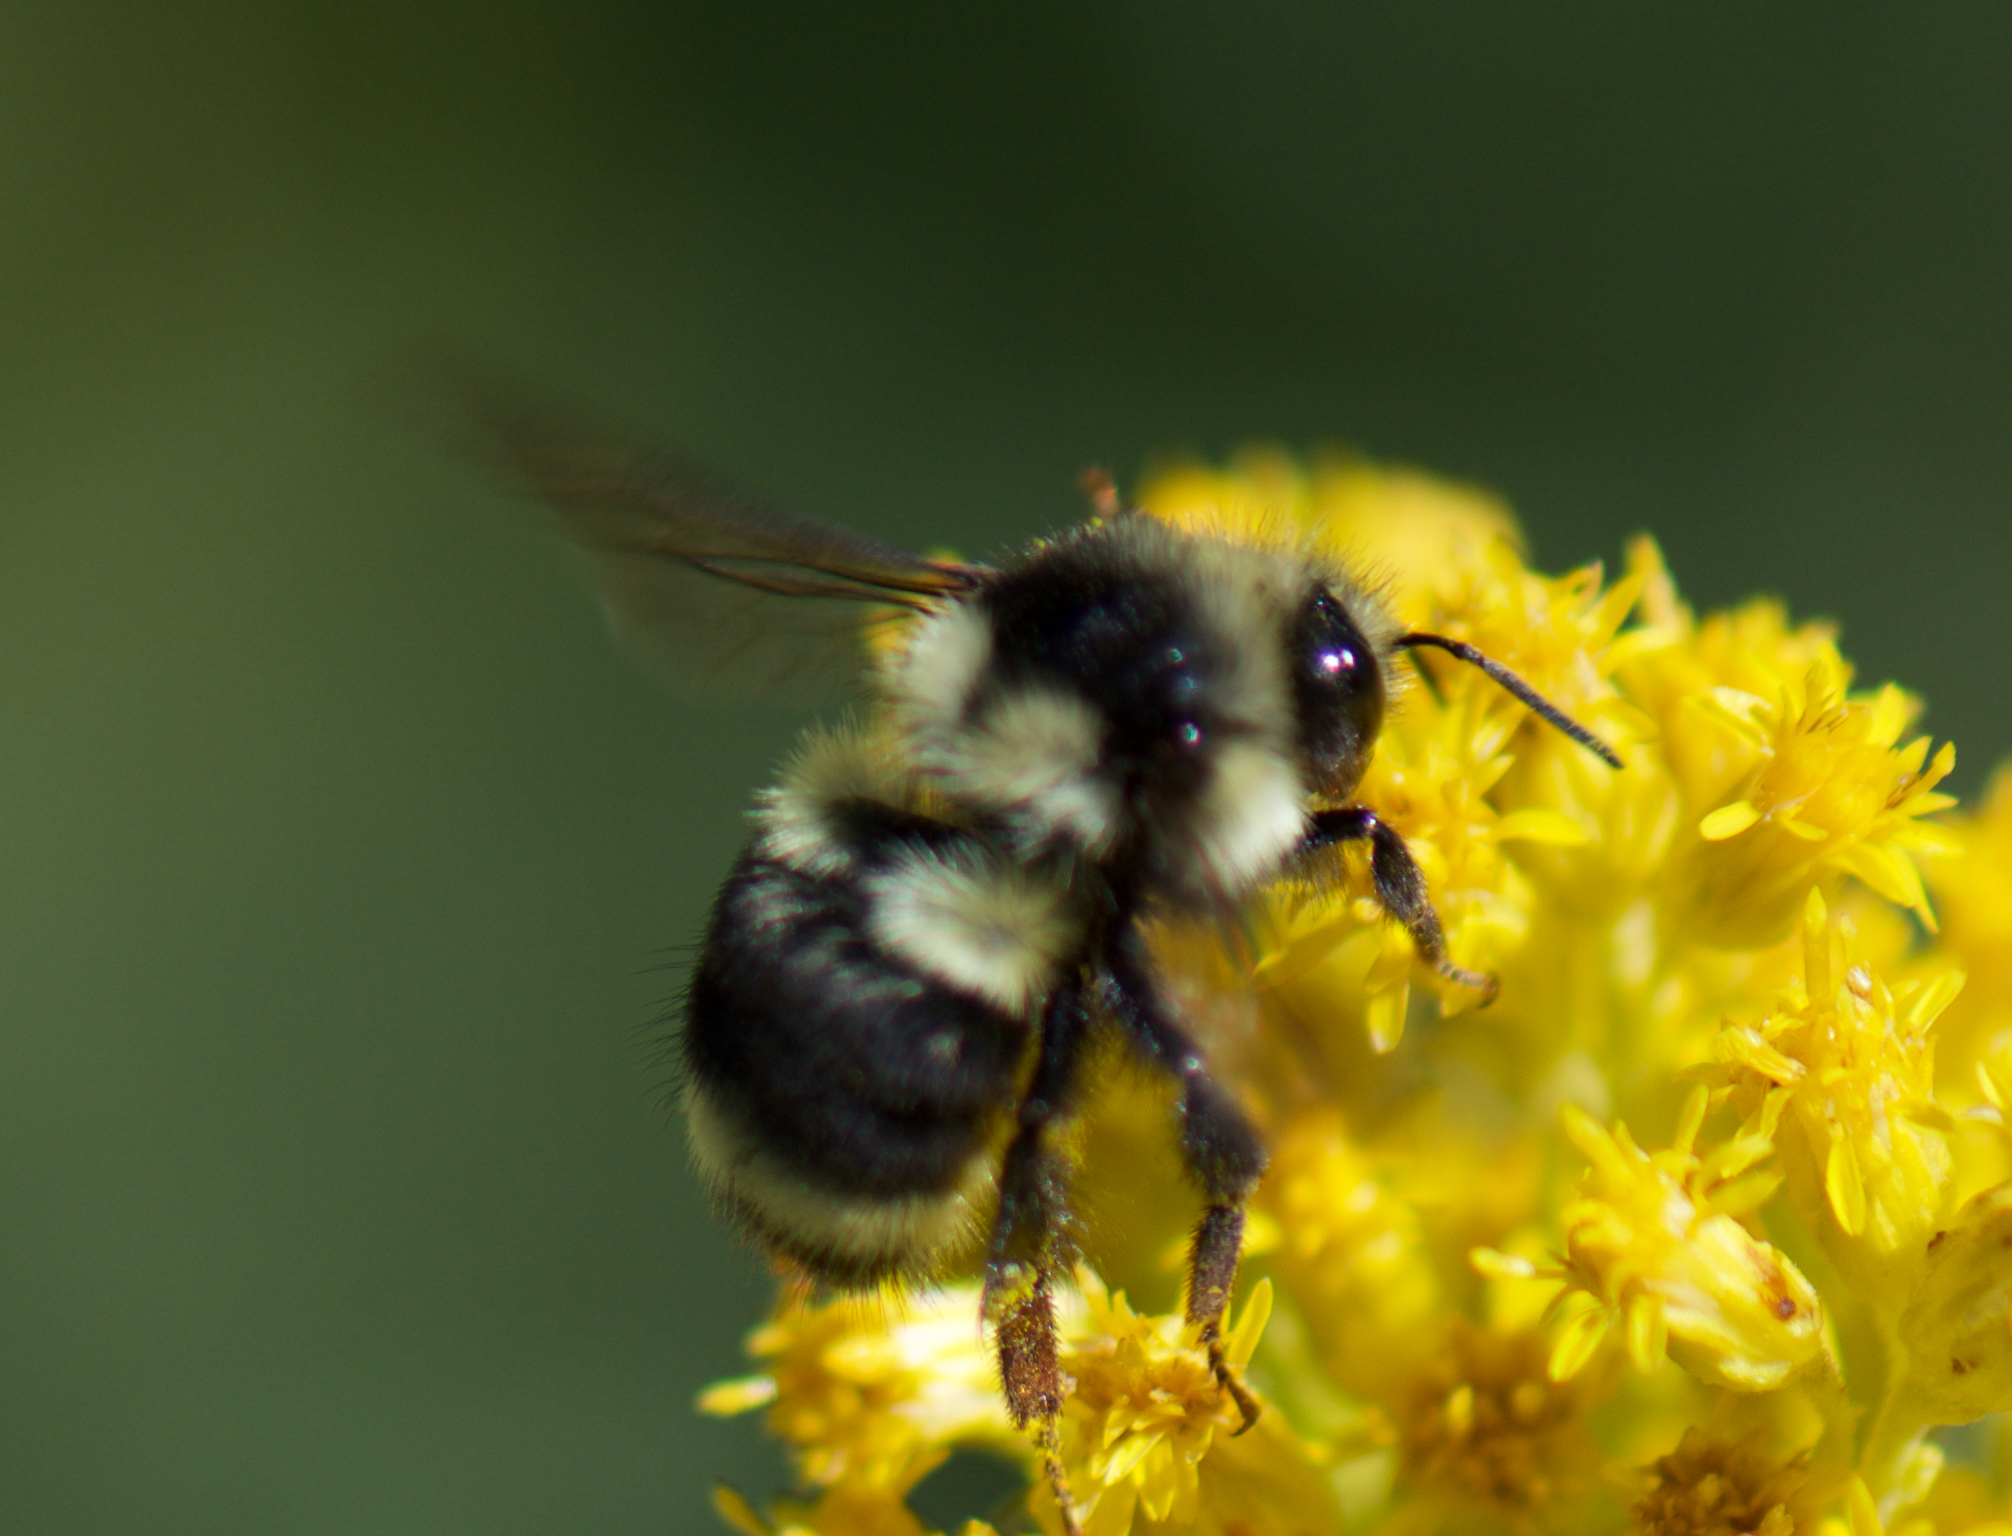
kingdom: Animalia
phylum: Arthropoda
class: Insecta
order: Hymenoptera
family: Apidae
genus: Bombus
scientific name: Bombus vancouverensis
